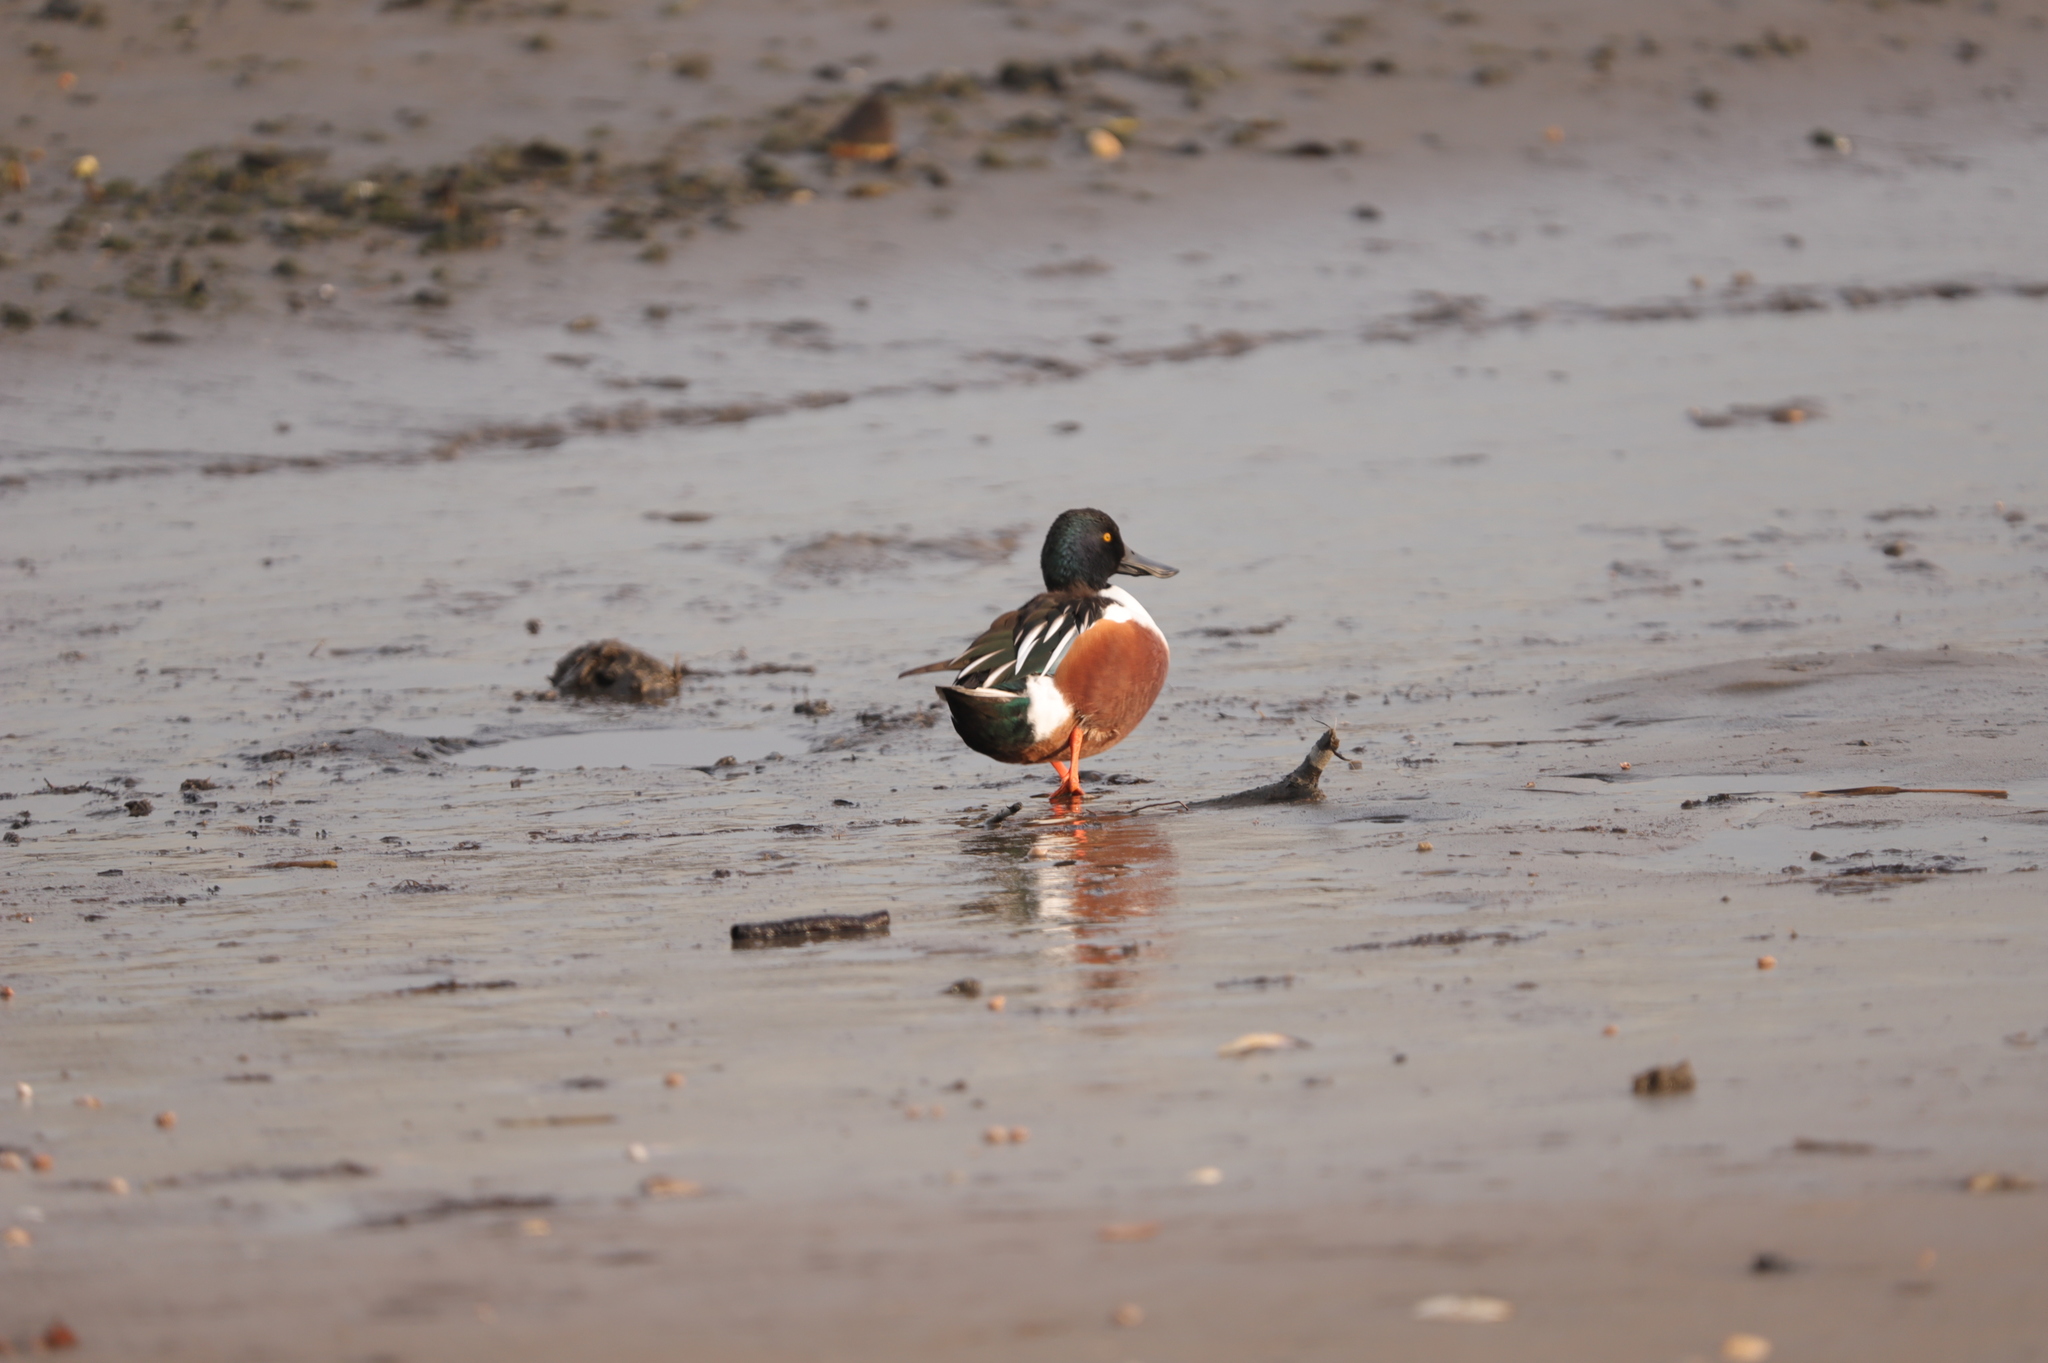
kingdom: Animalia
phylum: Chordata
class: Aves
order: Anseriformes
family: Anatidae
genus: Spatula
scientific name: Spatula clypeata
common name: Northern shoveler
